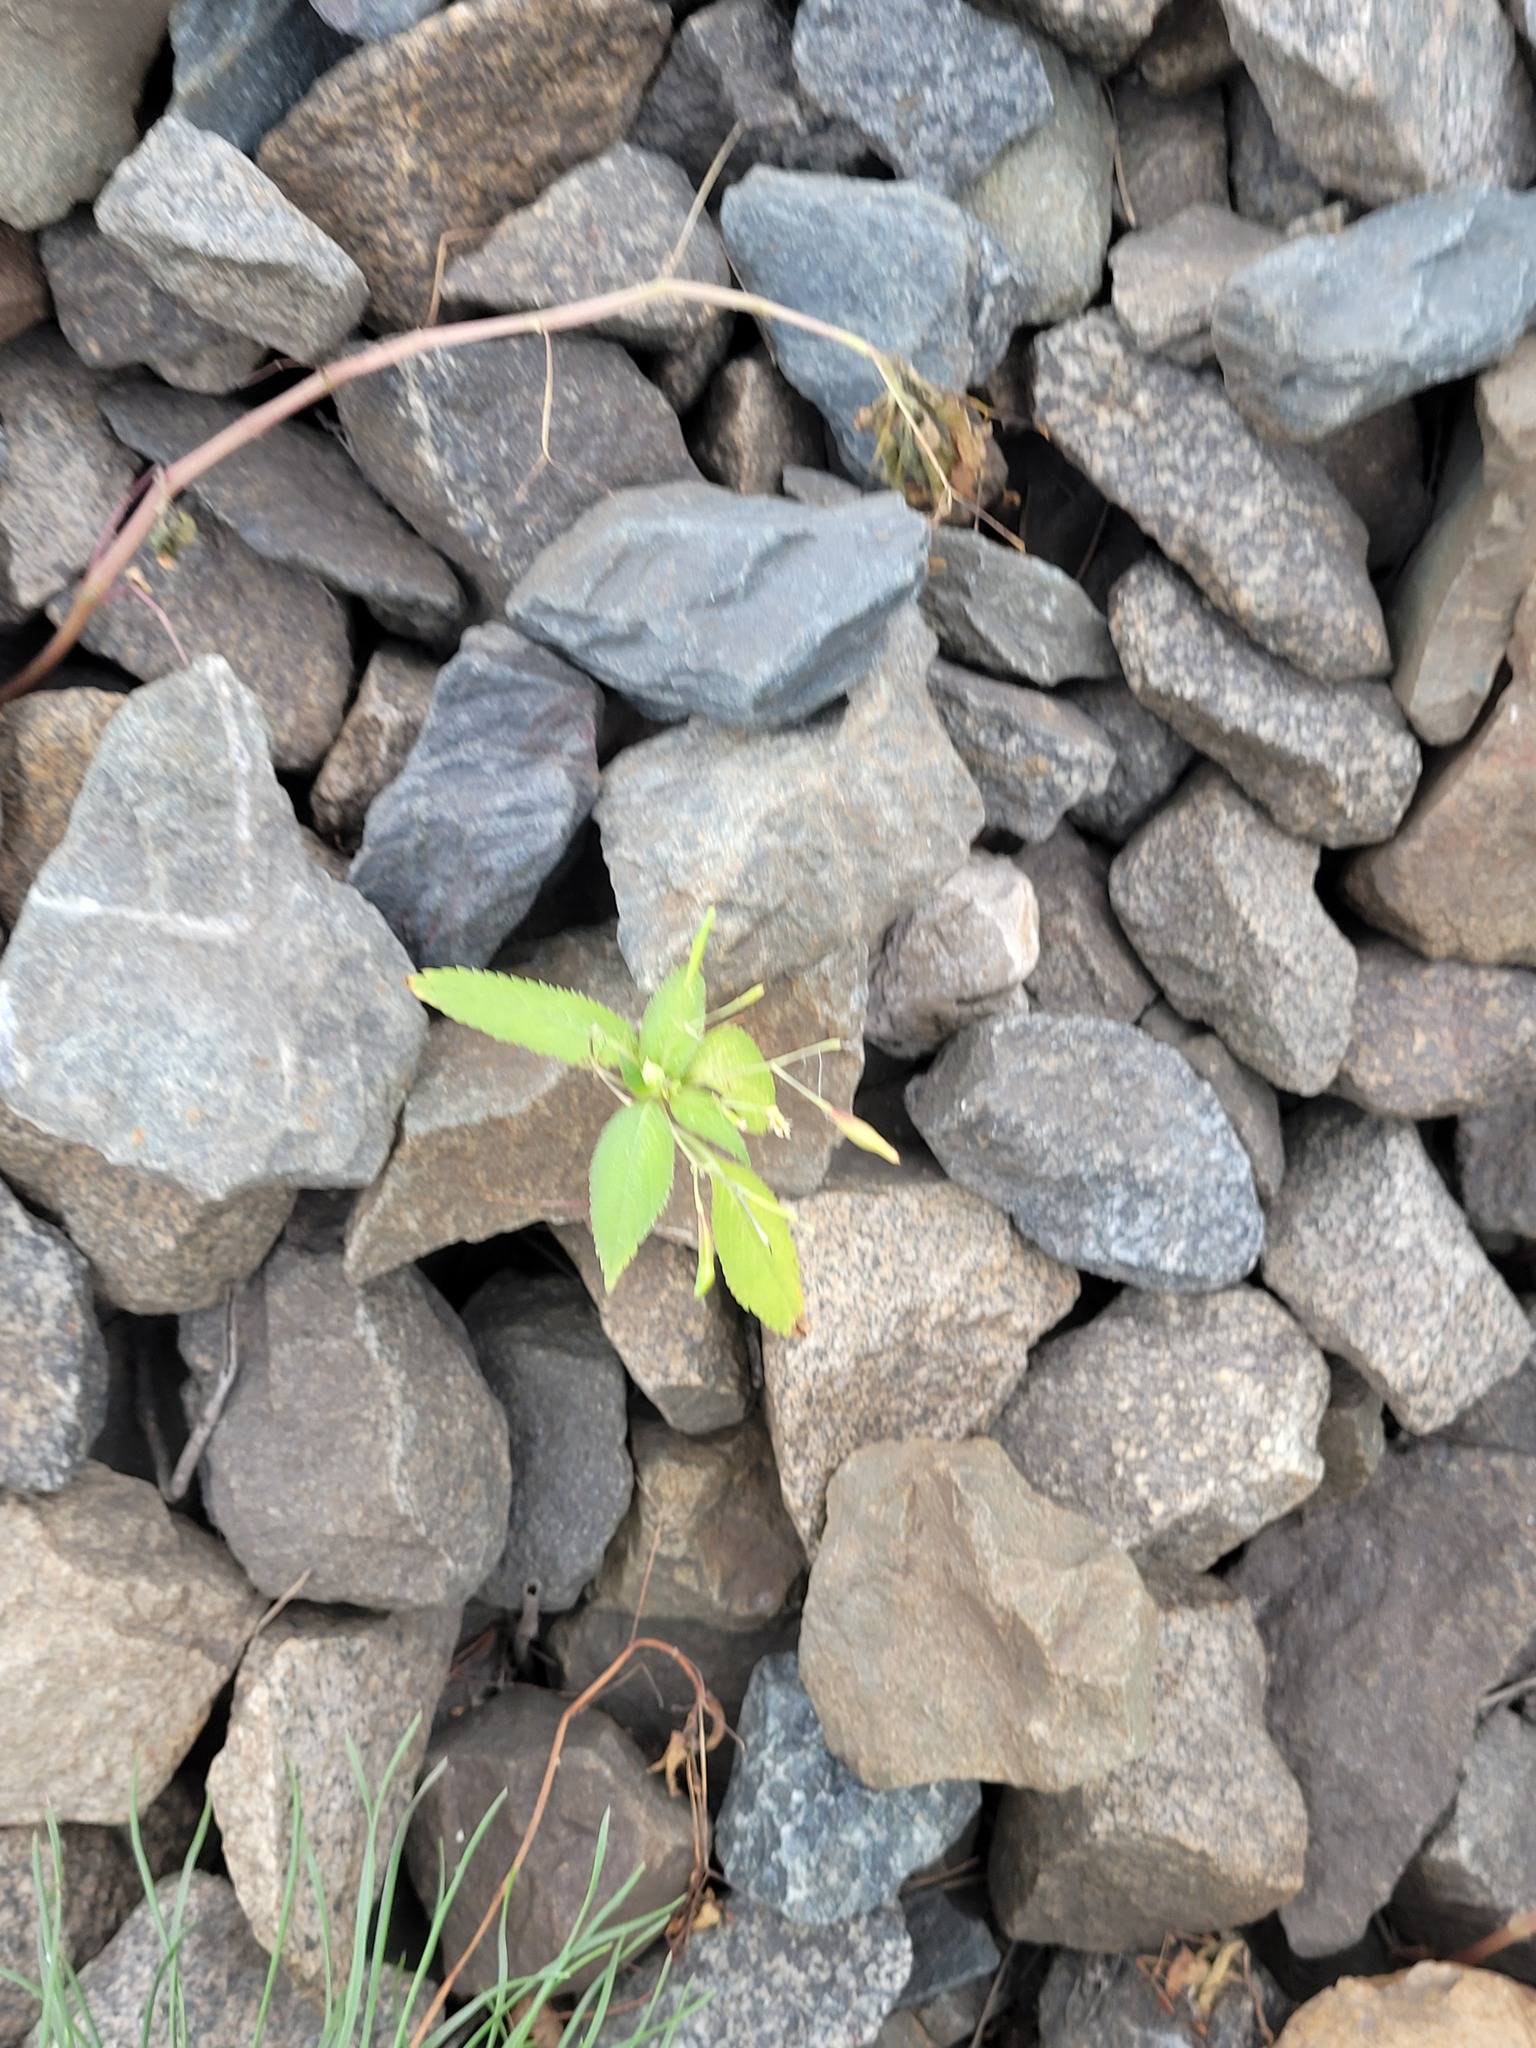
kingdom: Plantae
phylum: Tracheophyta
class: Magnoliopsida
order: Ericales
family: Balsaminaceae
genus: Impatiens
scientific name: Impatiens parviflora
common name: Small balsam
